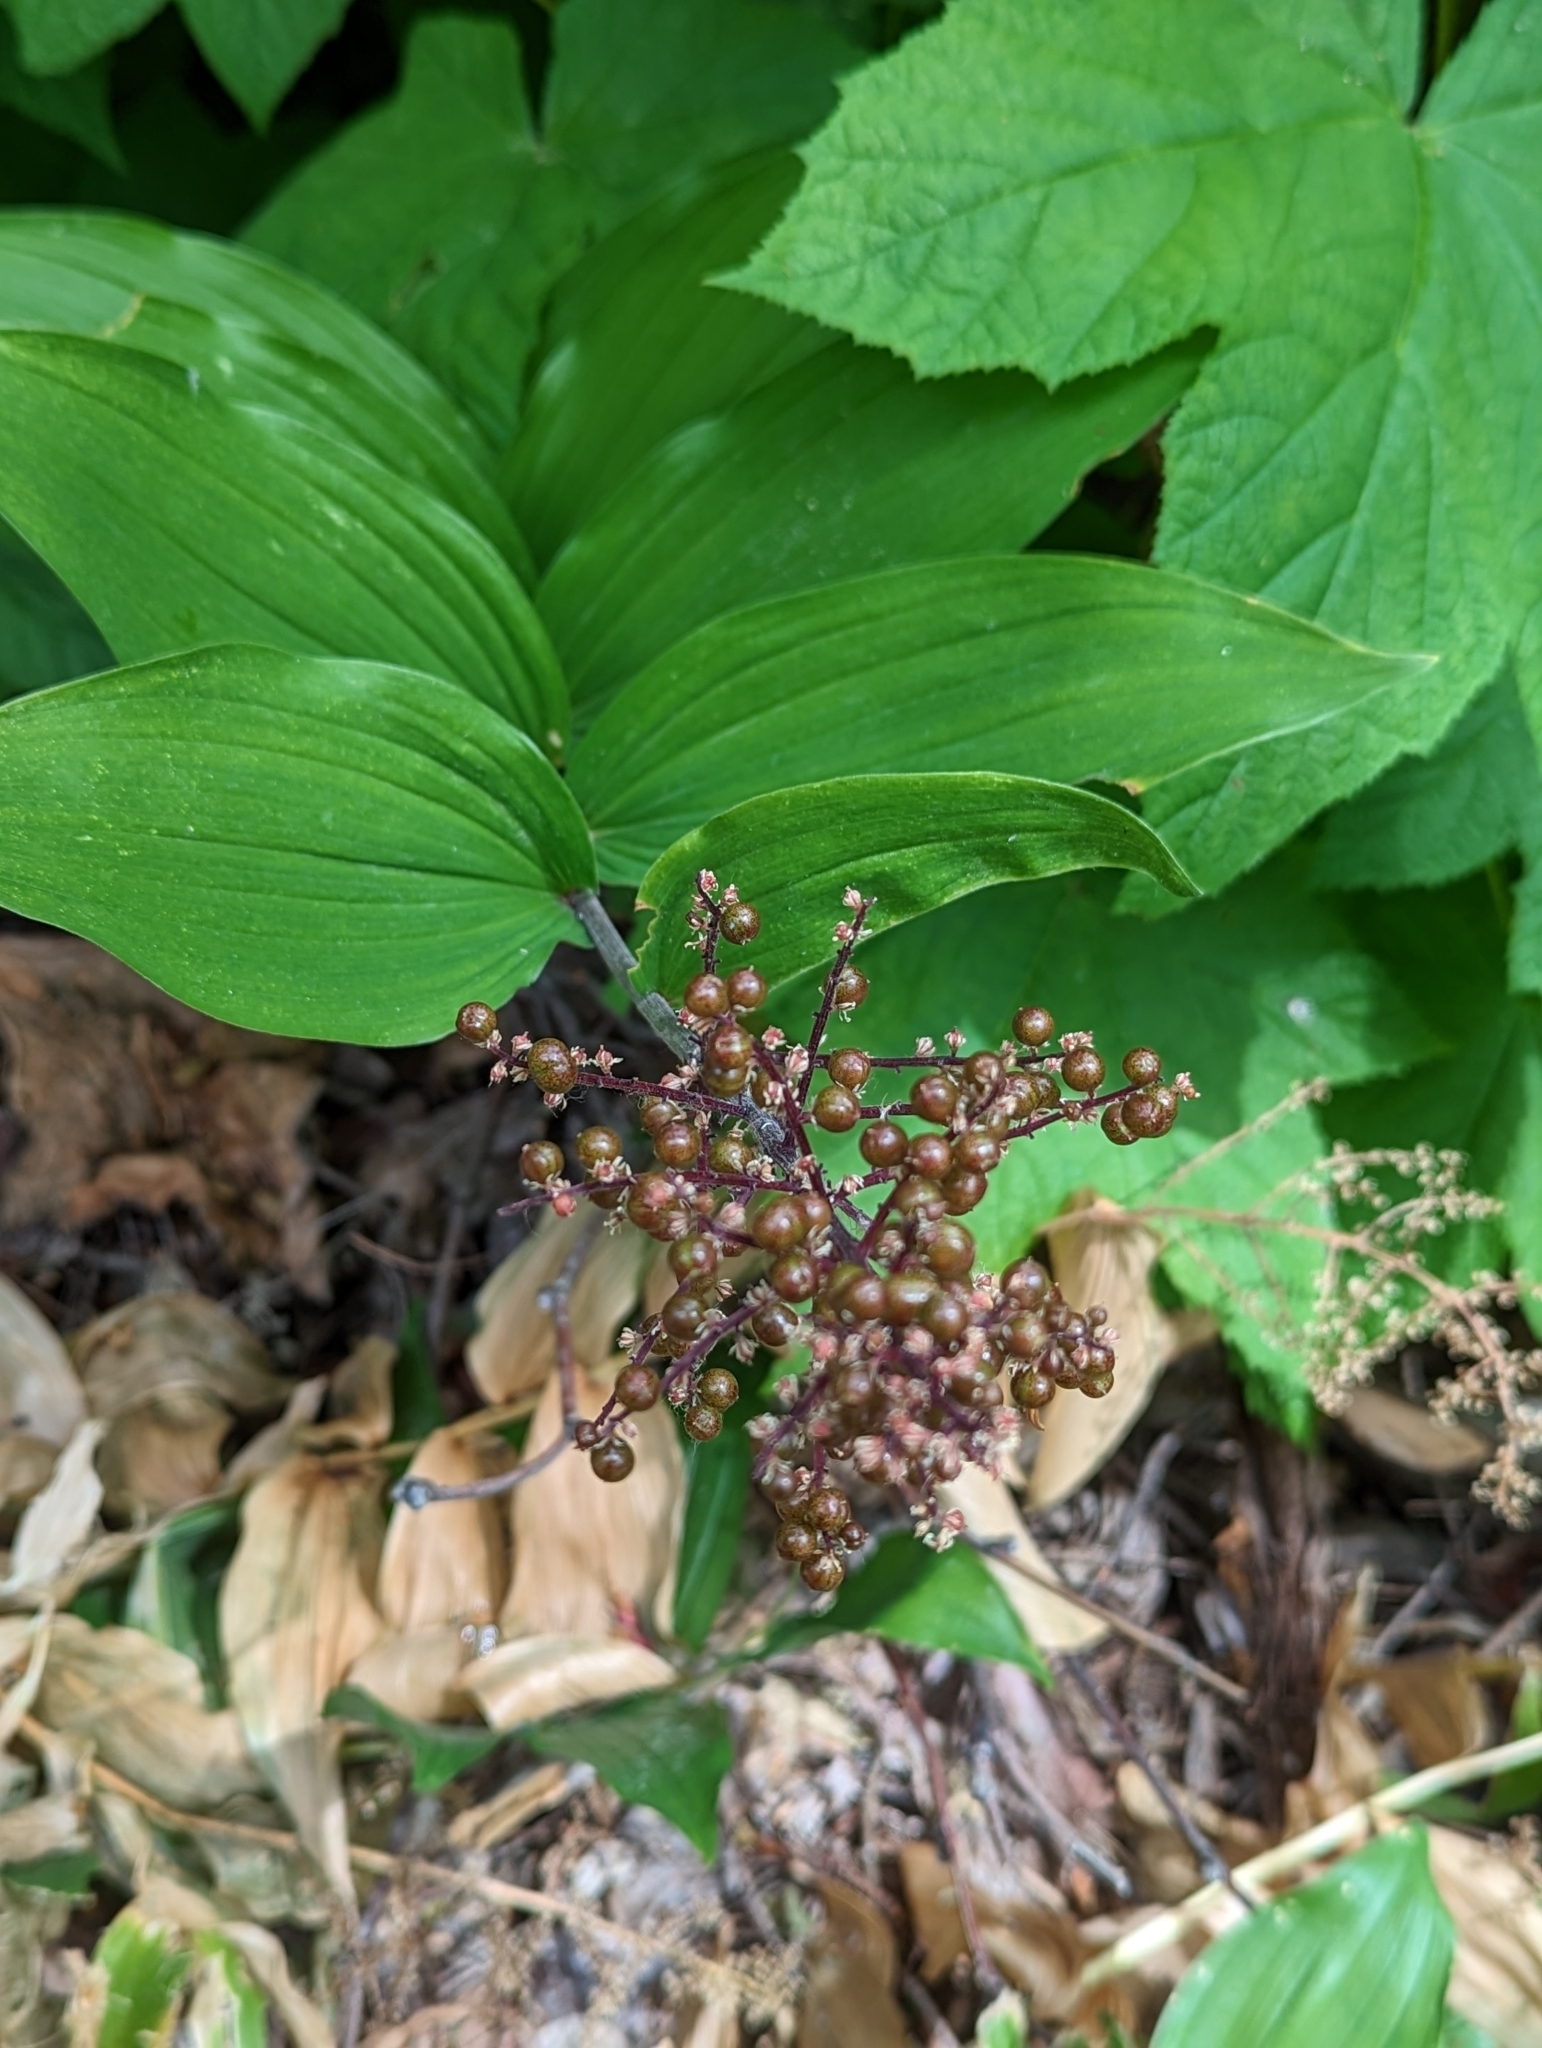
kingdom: Plantae
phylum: Tracheophyta
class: Liliopsida
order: Asparagales
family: Asparagaceae
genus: Maianthemum
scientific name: Maianthemum racemosum
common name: False spikenard
